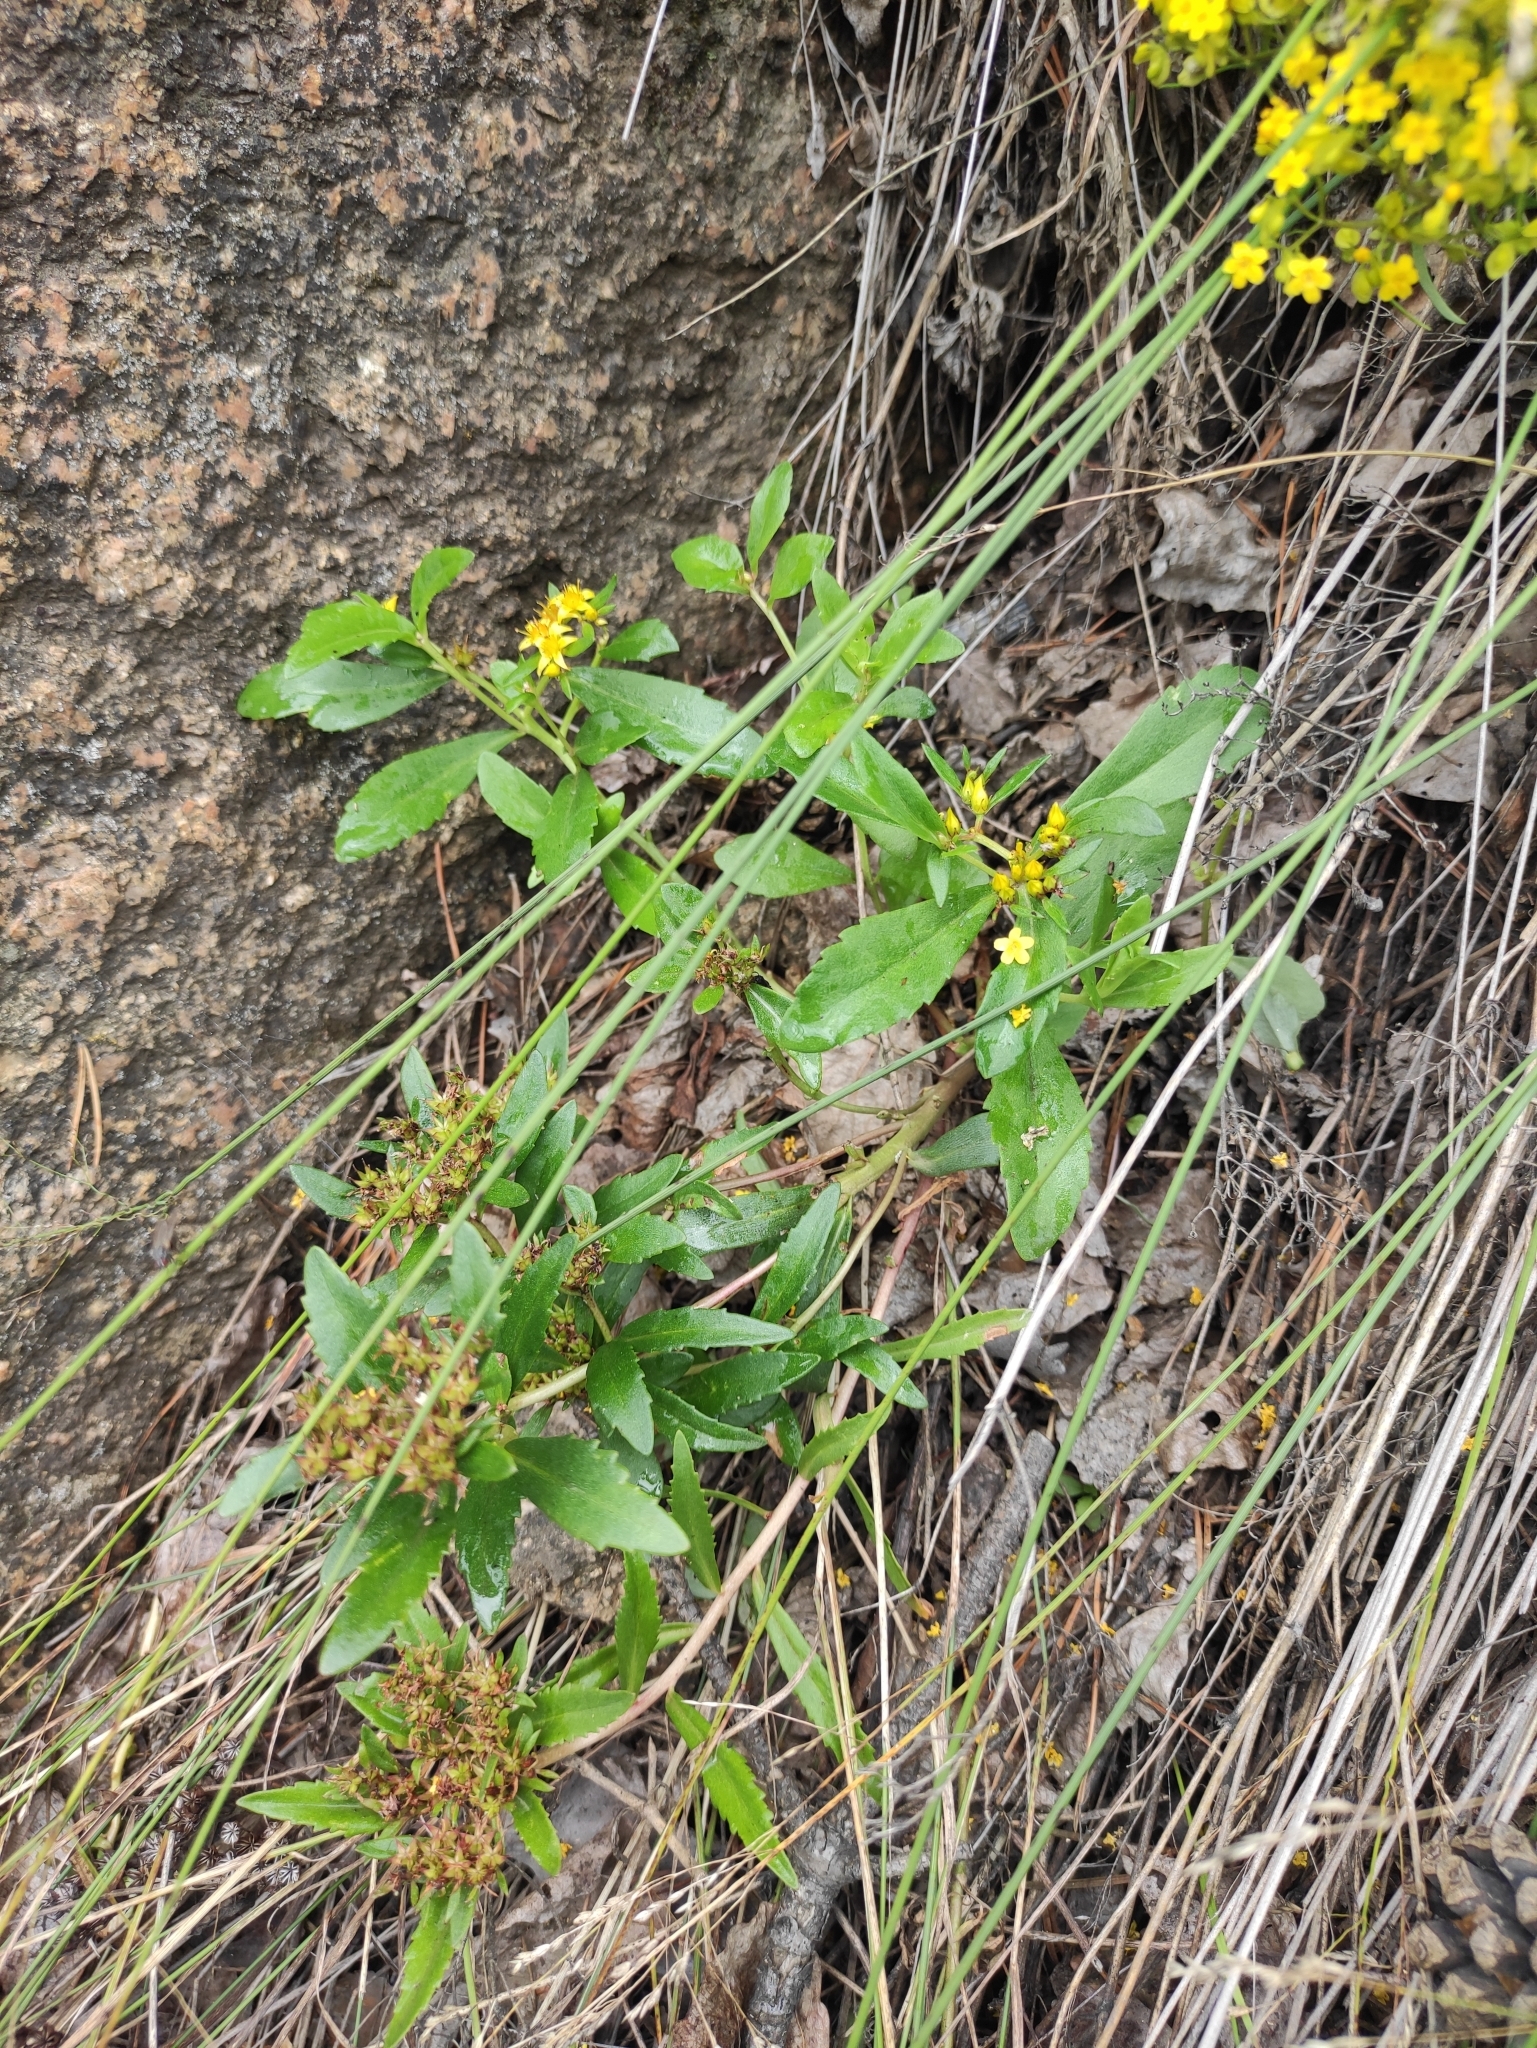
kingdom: Plantae
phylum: Tracheophyta
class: Magnoliopsida
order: Saxifragales
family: Crassulaceae
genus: Phedimus
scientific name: Phedimus aizoon
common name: Orpin aizoon
